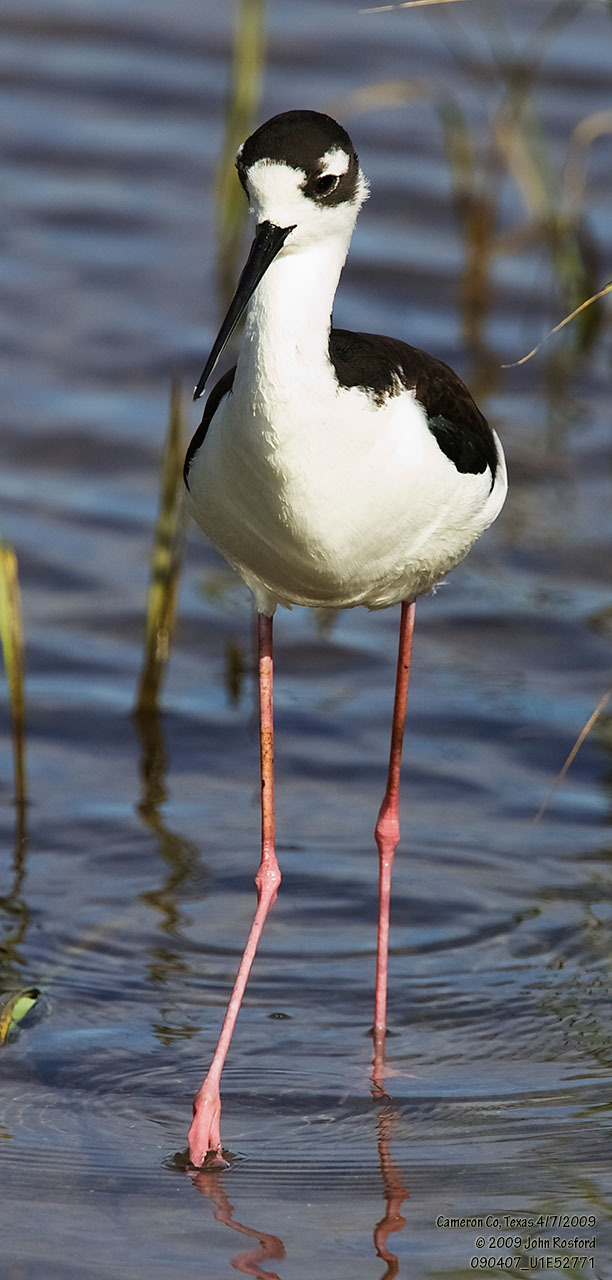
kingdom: Animalia
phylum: Chordata
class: Aves
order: Charadriiformes
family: Recurvirostridae
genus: Himantopus
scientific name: Himantopus mexicanus
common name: Black-necked stilt
